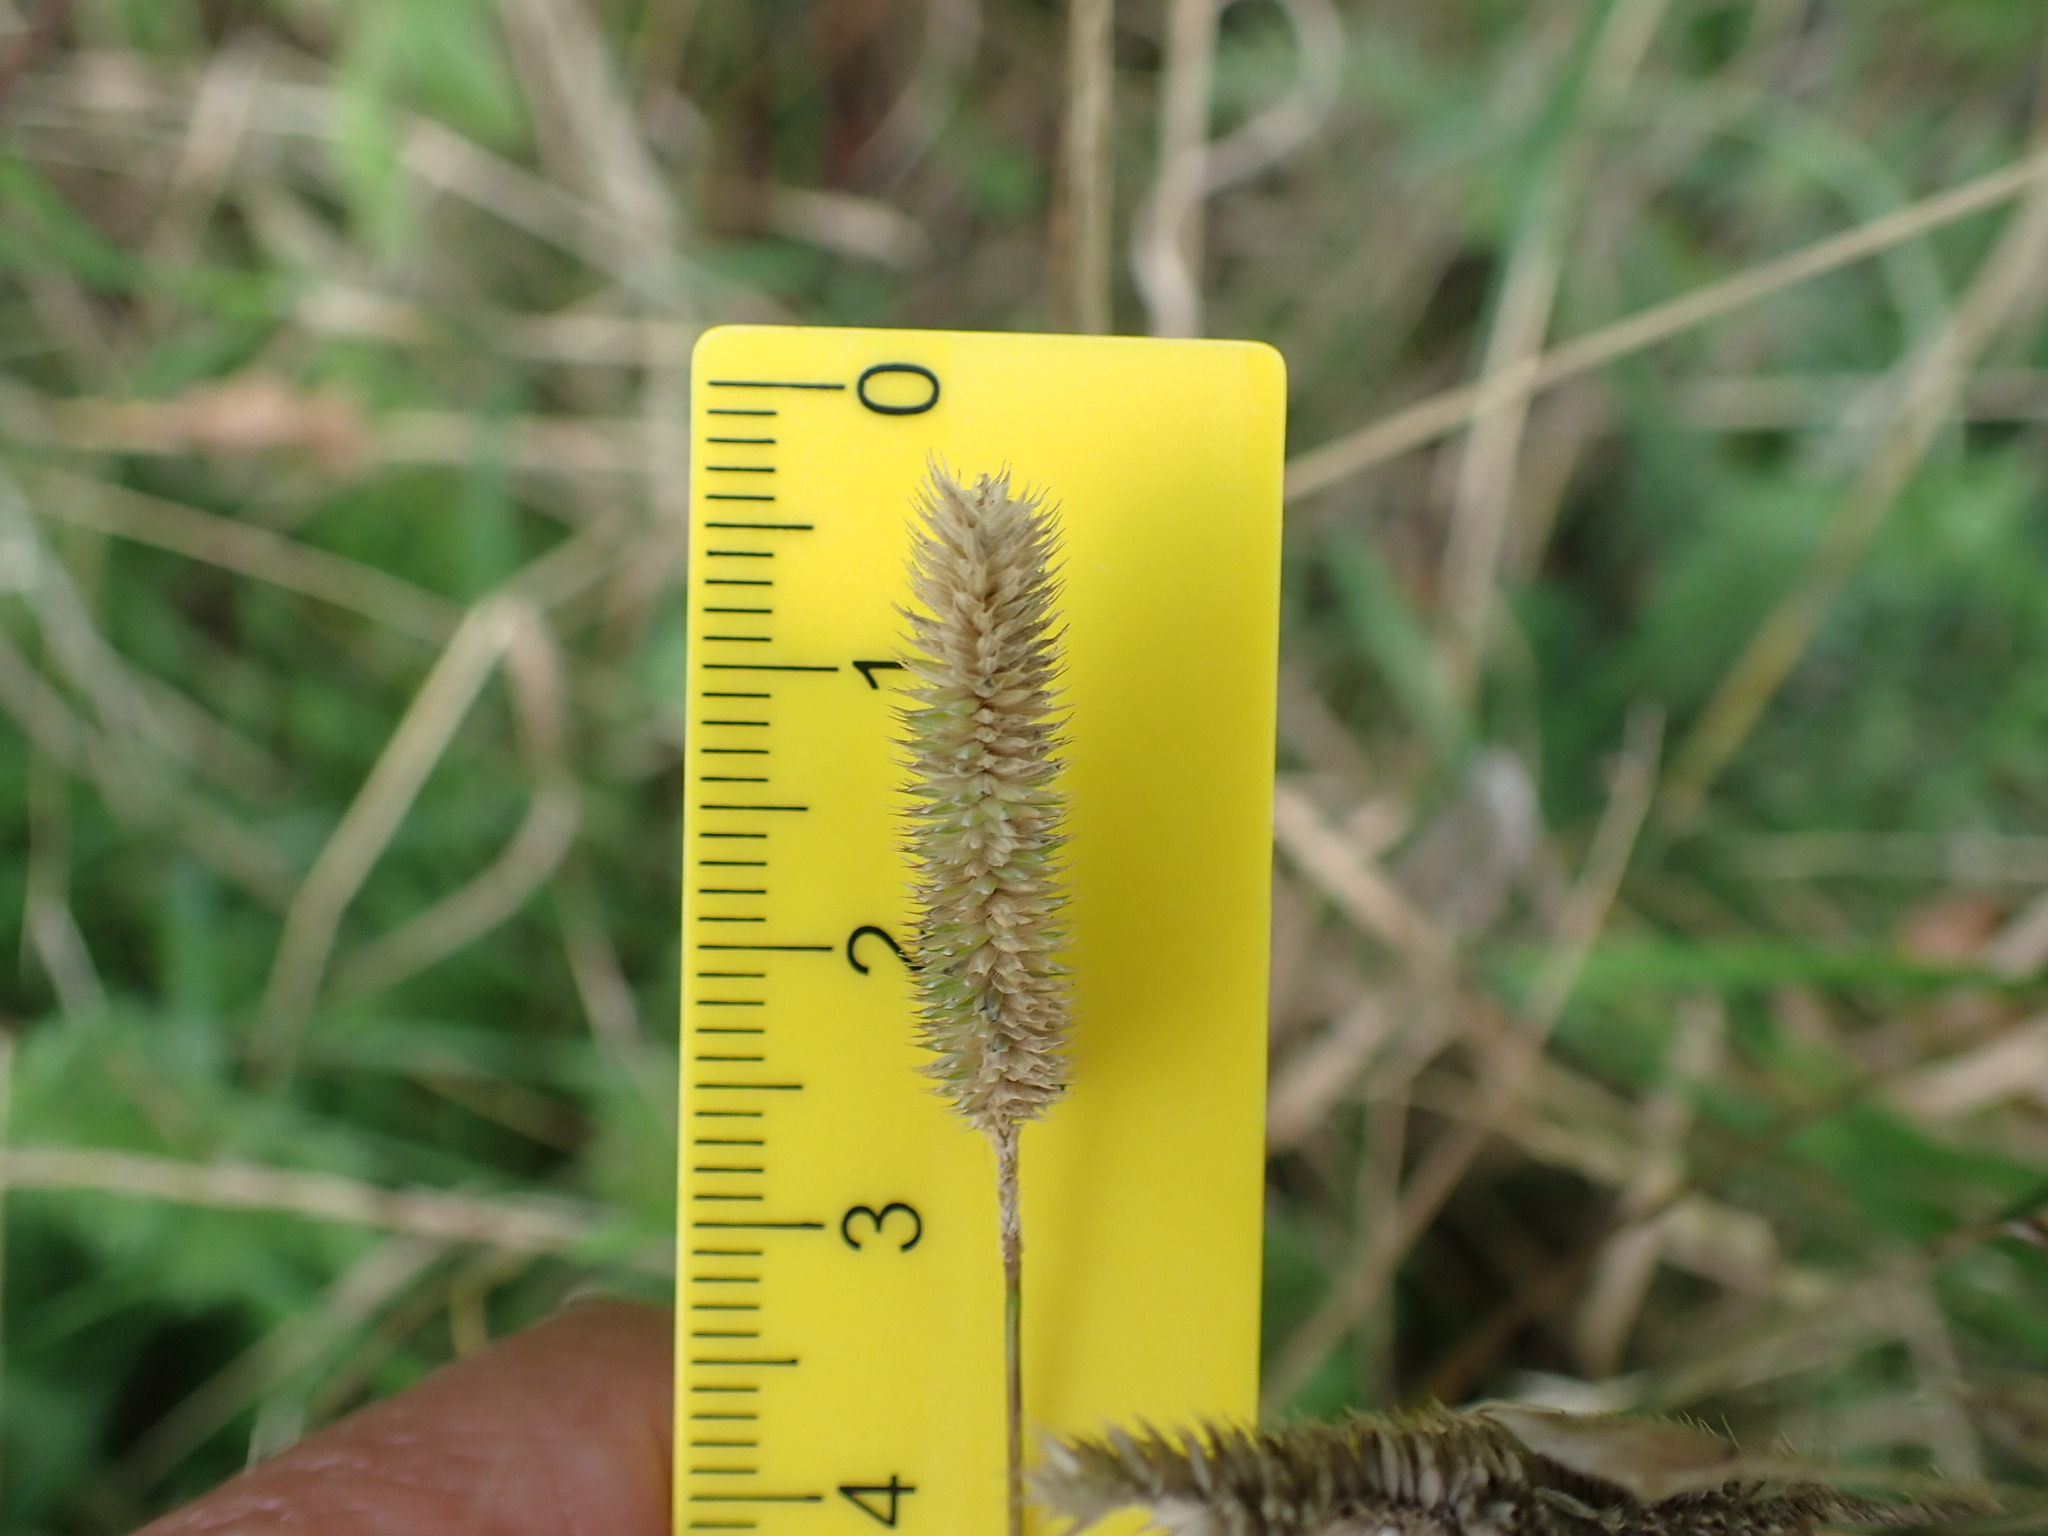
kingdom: Plantae
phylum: Tracheophyta
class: Liliopsida
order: Poales
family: Poaceae
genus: Phleum
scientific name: Phleum bertolonii
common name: Smaller cat's-tail
